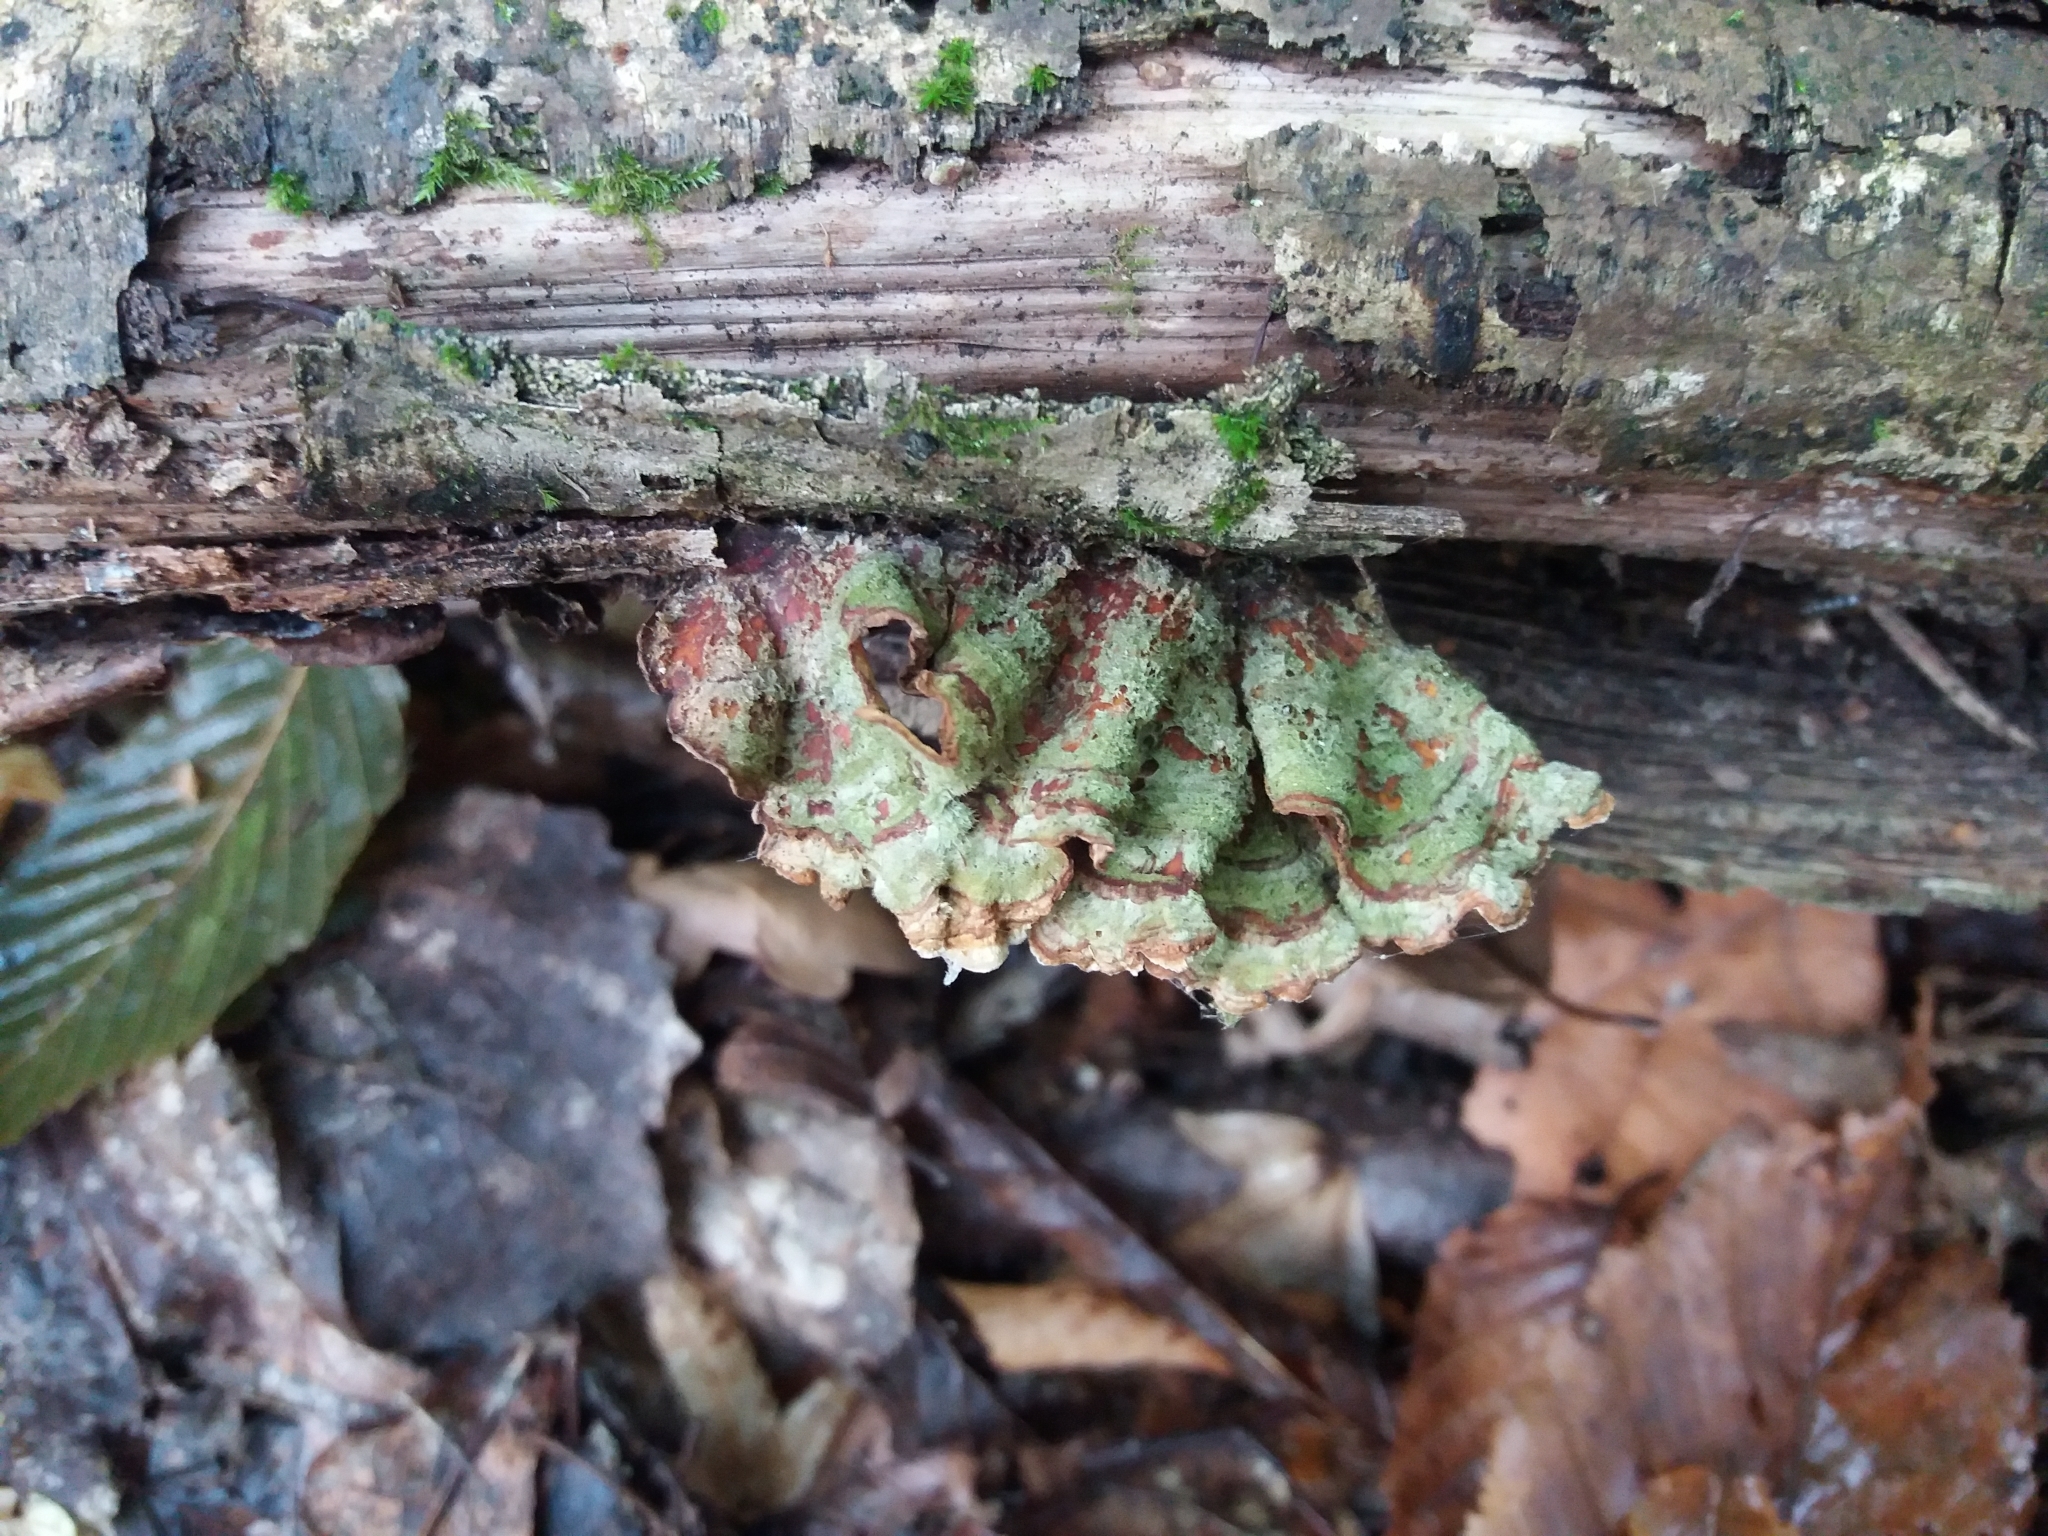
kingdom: Fungi
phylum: Basidiomycota
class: Agaricomycetes
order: Russulales
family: Stereaceae
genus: Stereum
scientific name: Stereum hirsutum
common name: Hairy curtain crust
